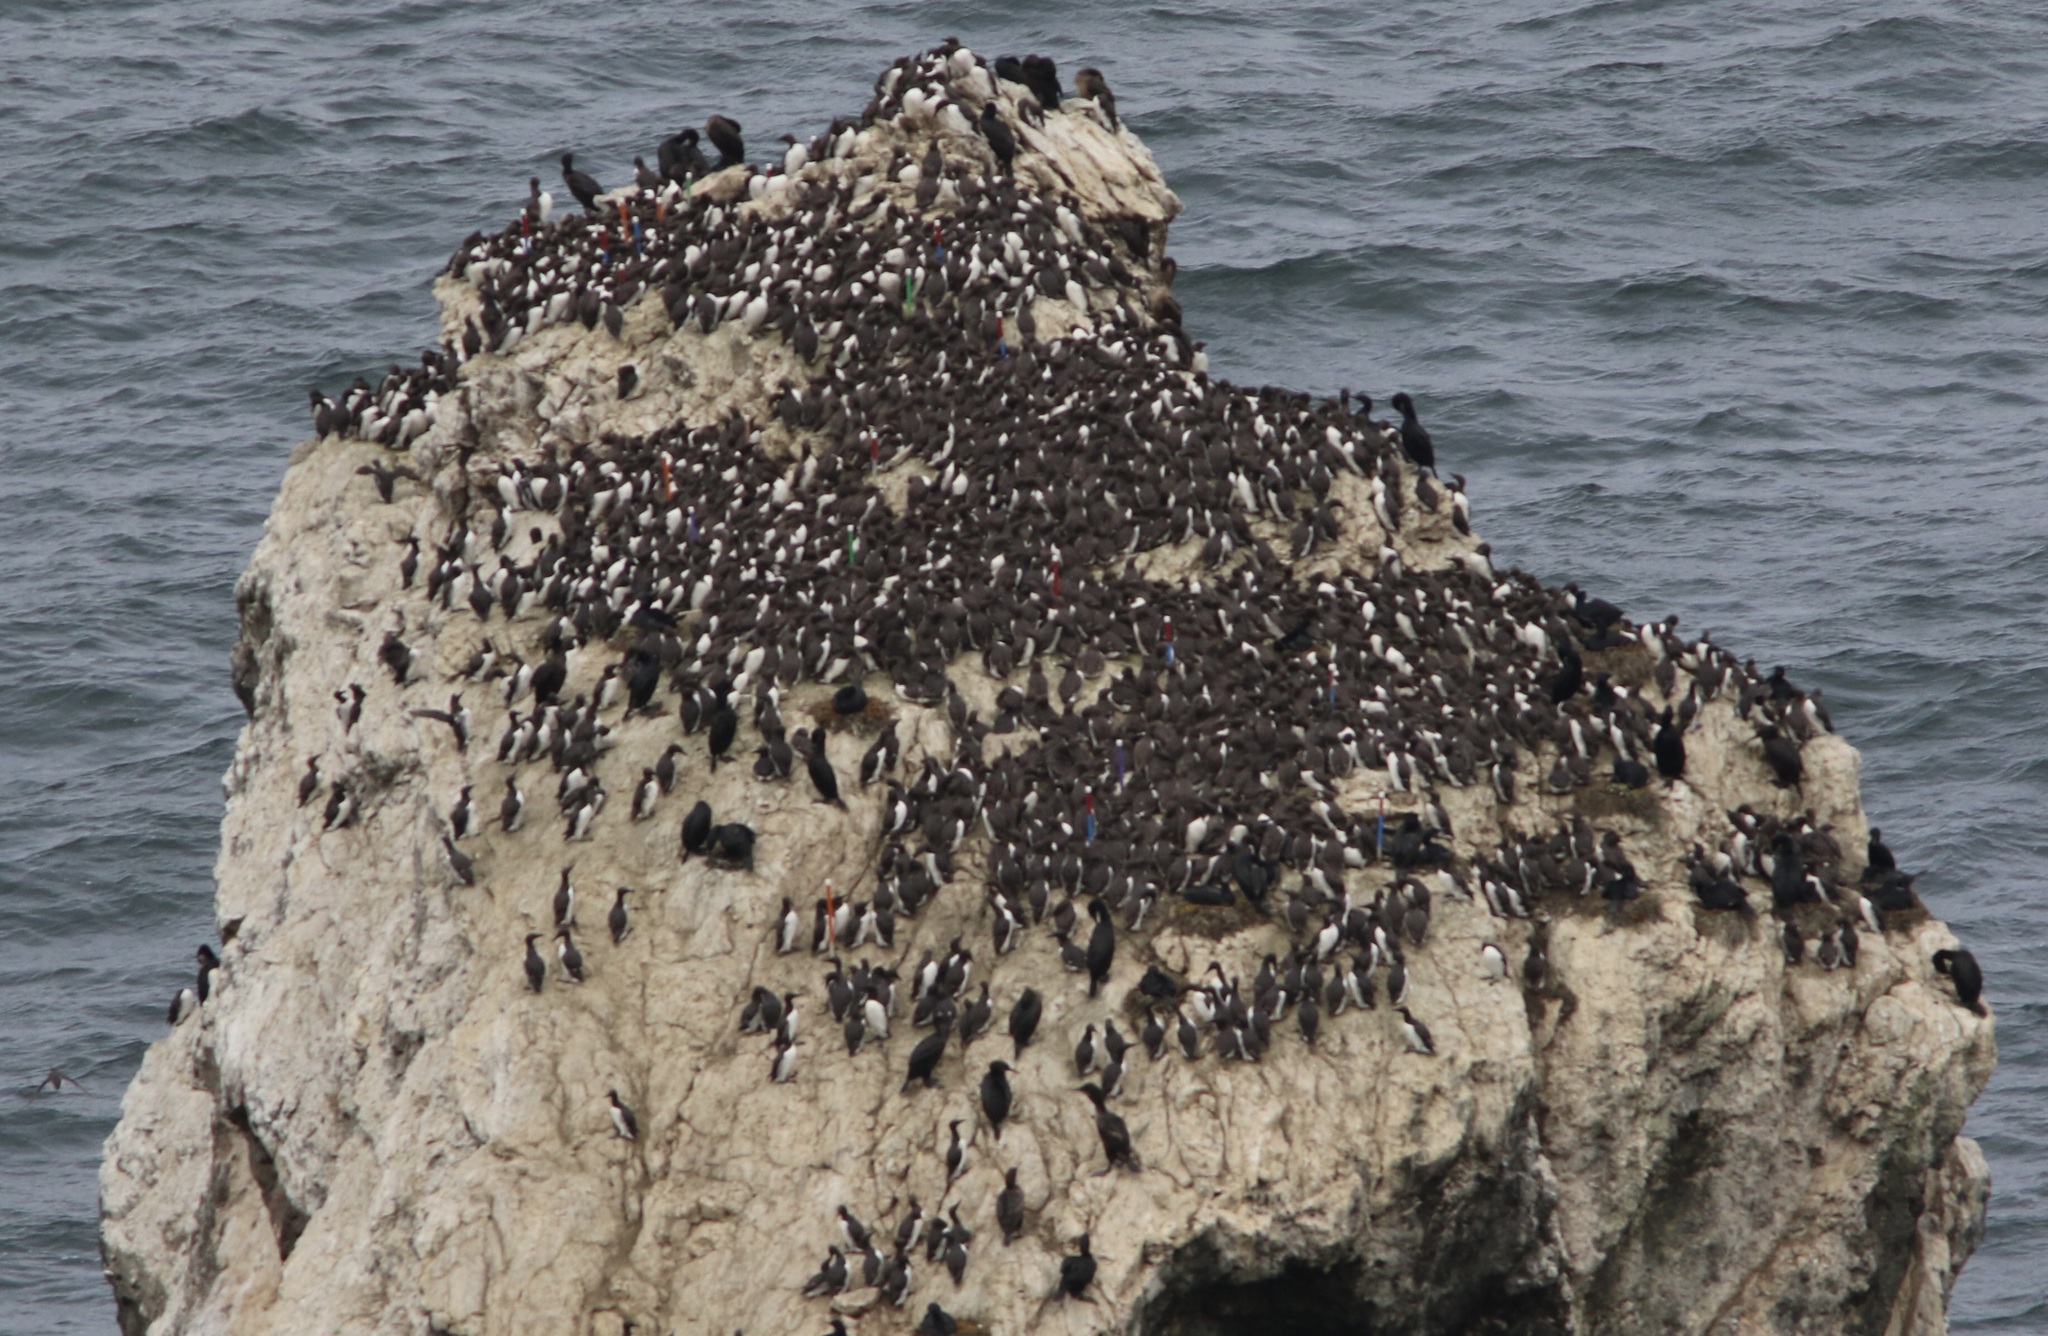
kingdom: Animalia
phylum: Chordata
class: Aves
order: Charadriiformes
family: Alcidae
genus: Uria
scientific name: Uria aalge
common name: Common murre
